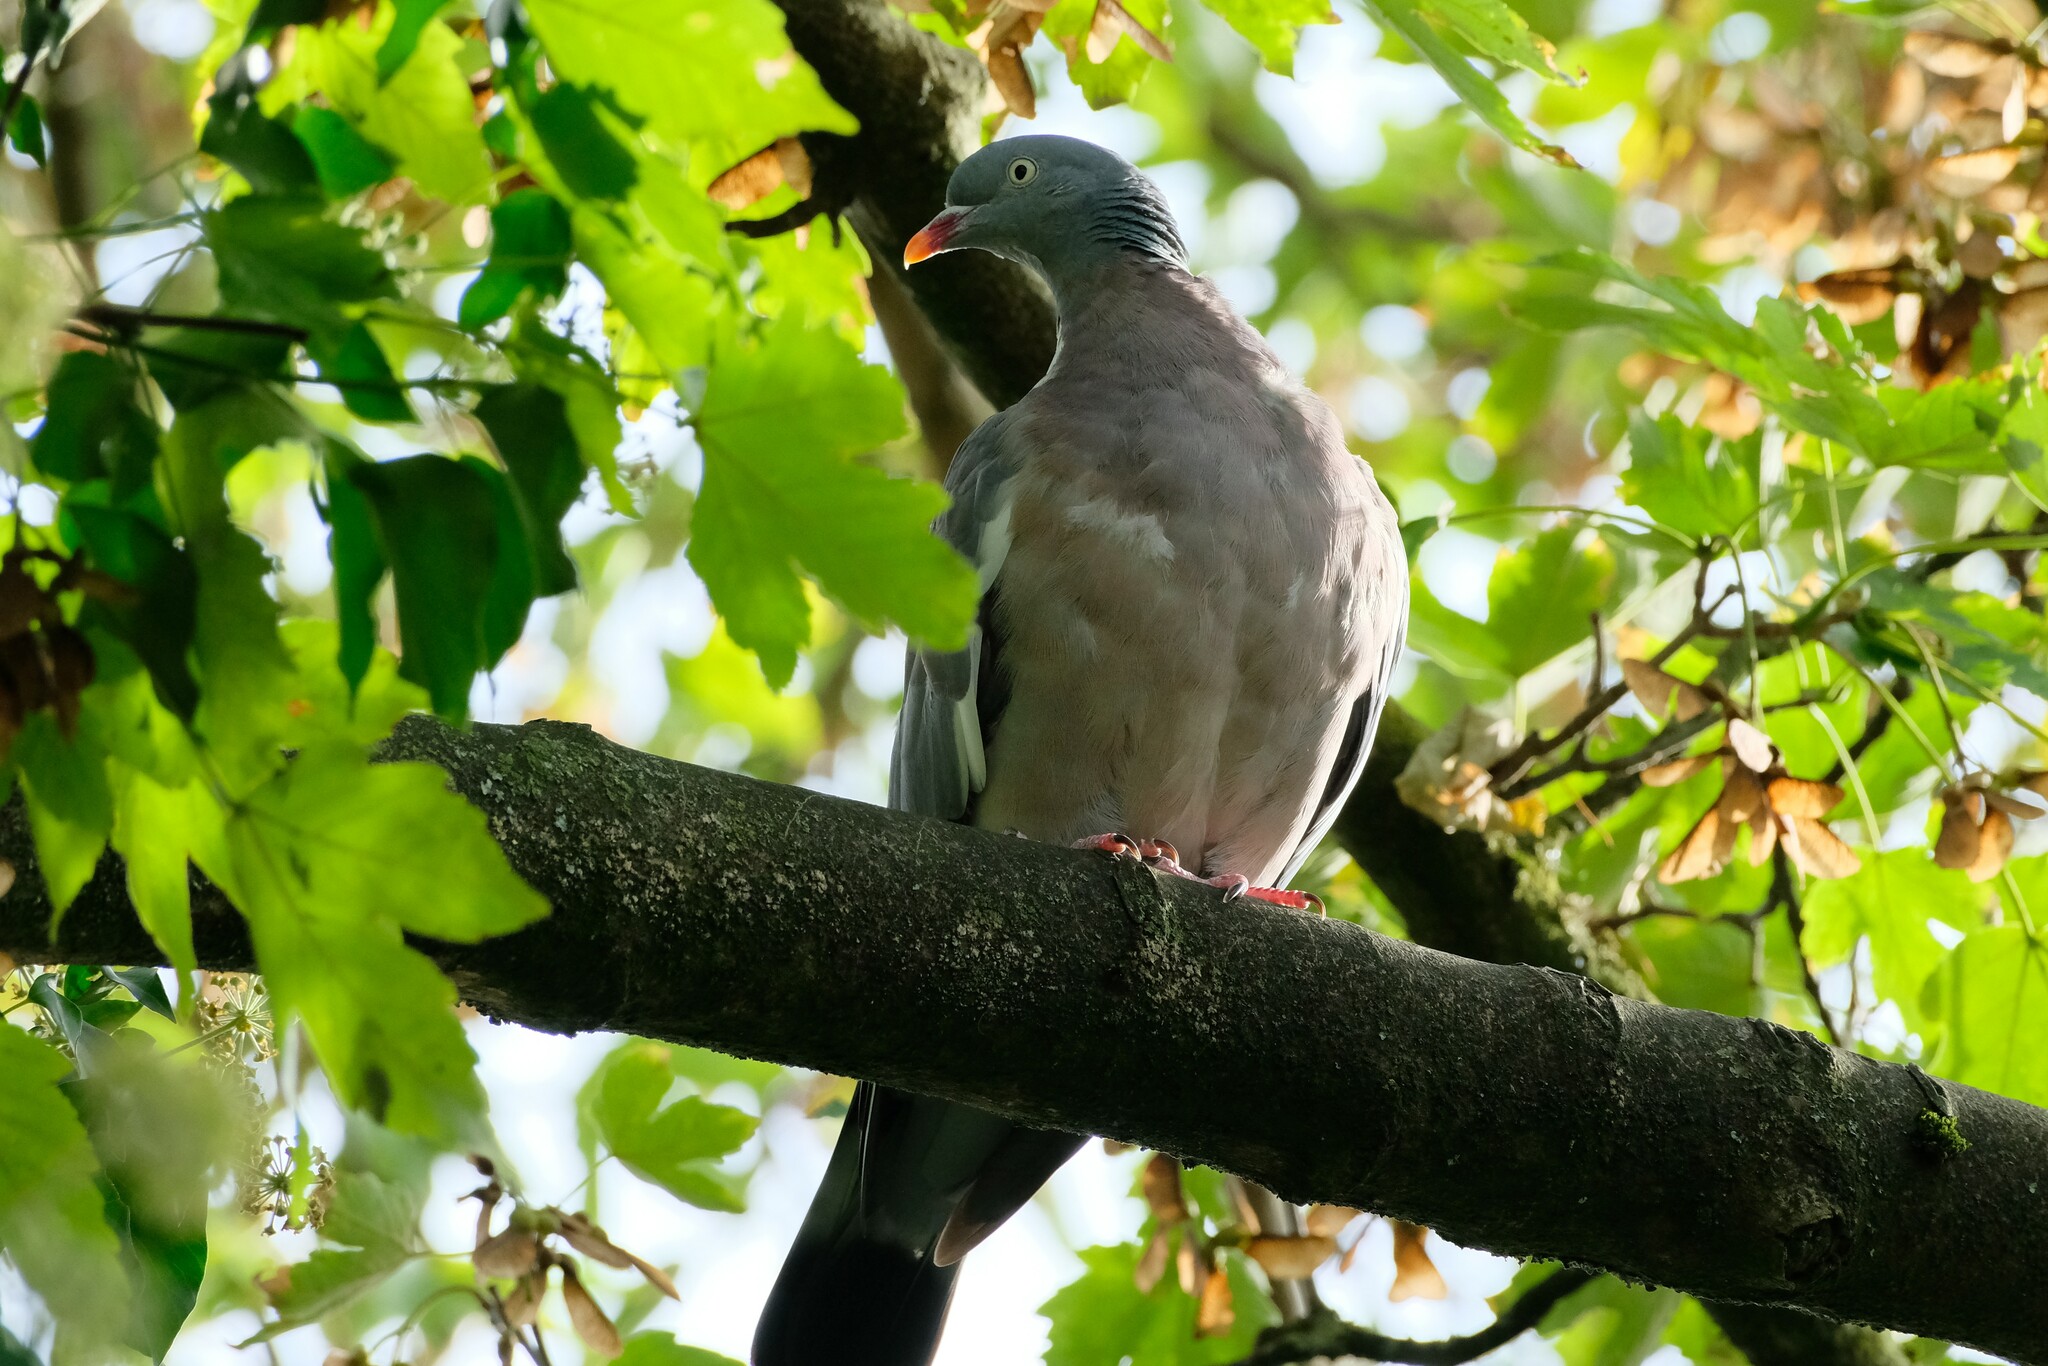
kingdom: Animalia
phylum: Chordata
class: Aves
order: Columbiformes
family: Columbidae
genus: Columba
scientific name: Columba palumbus
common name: Common wood pigeon
